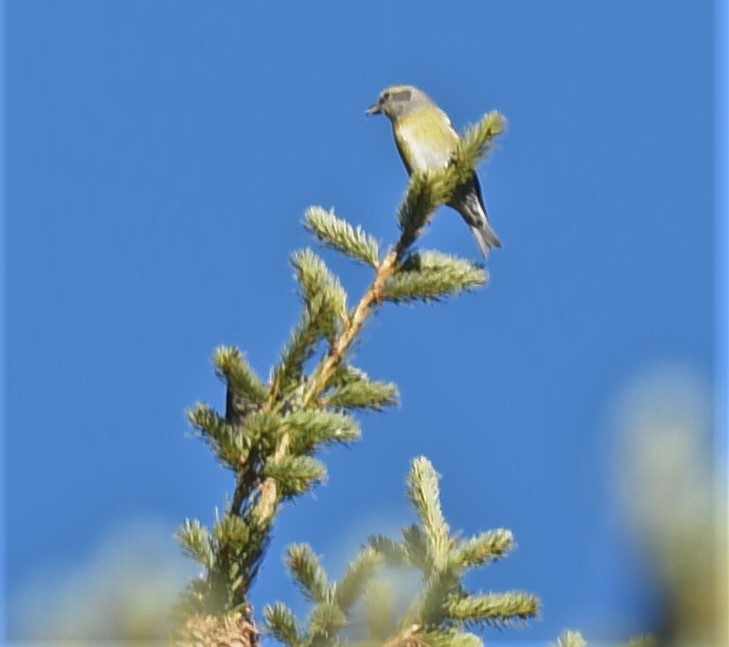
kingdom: Animalia
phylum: Chordata
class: Aves
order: Passeriformes
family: Fringillidae
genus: Loxia
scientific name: Loxia curvirostra
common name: Red crossbill
